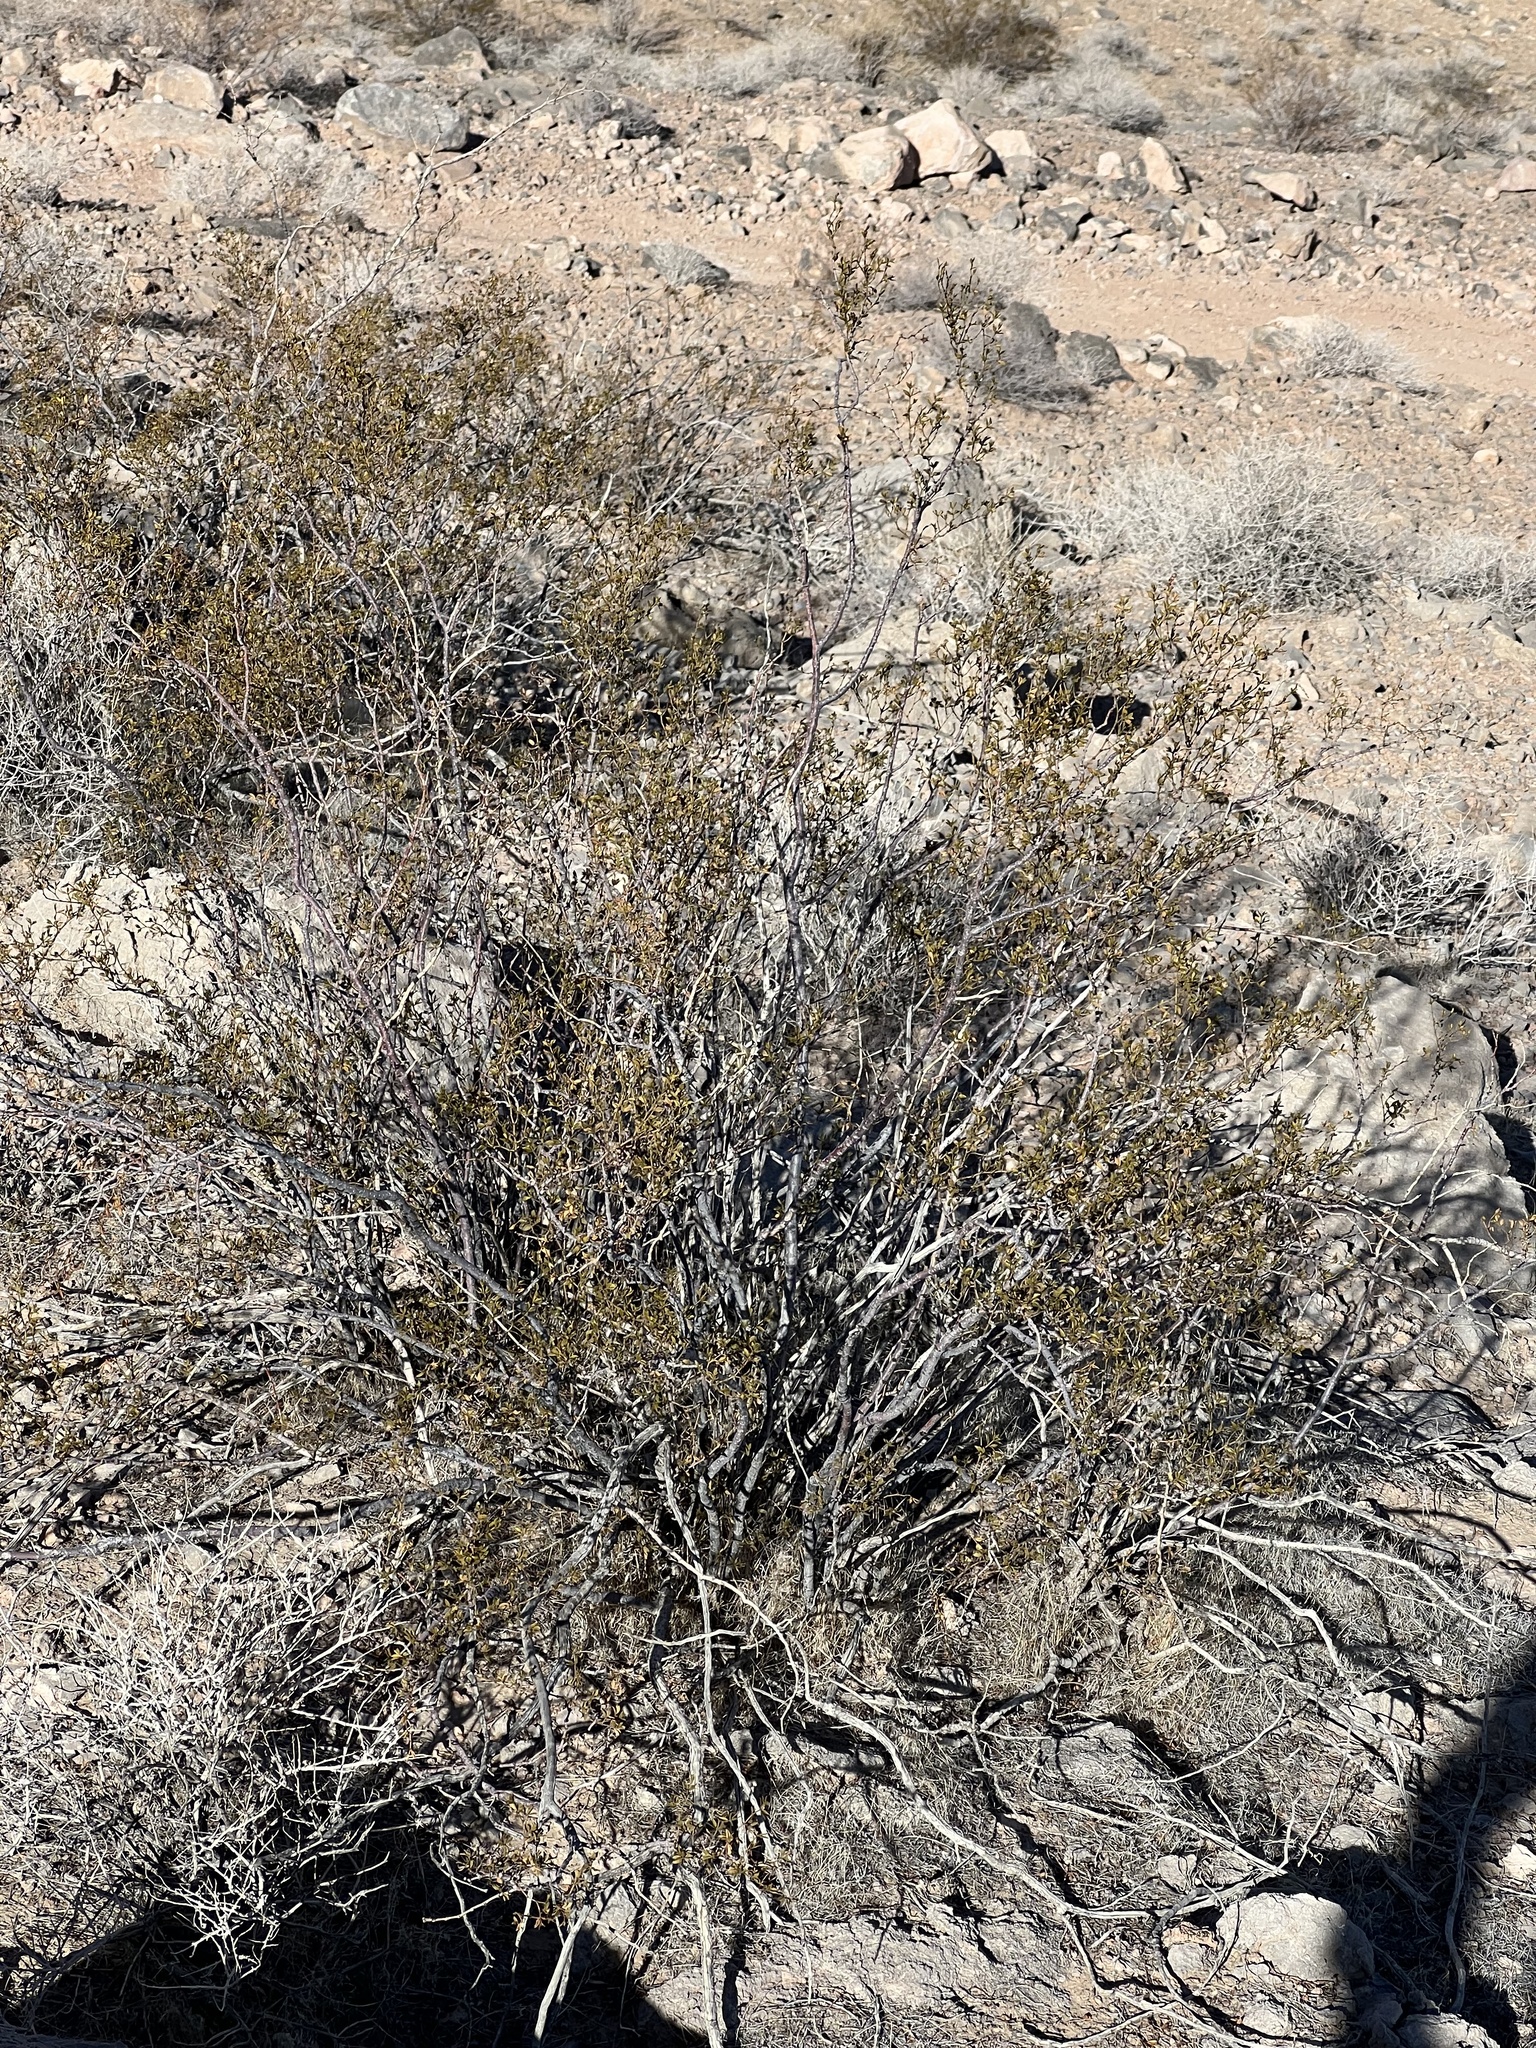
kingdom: Plantae
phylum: Tracheophyta
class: Magnoliopsida
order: Zygophyllales
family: Zygophyllaceae
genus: Larrea
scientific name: Larrea tridentata
